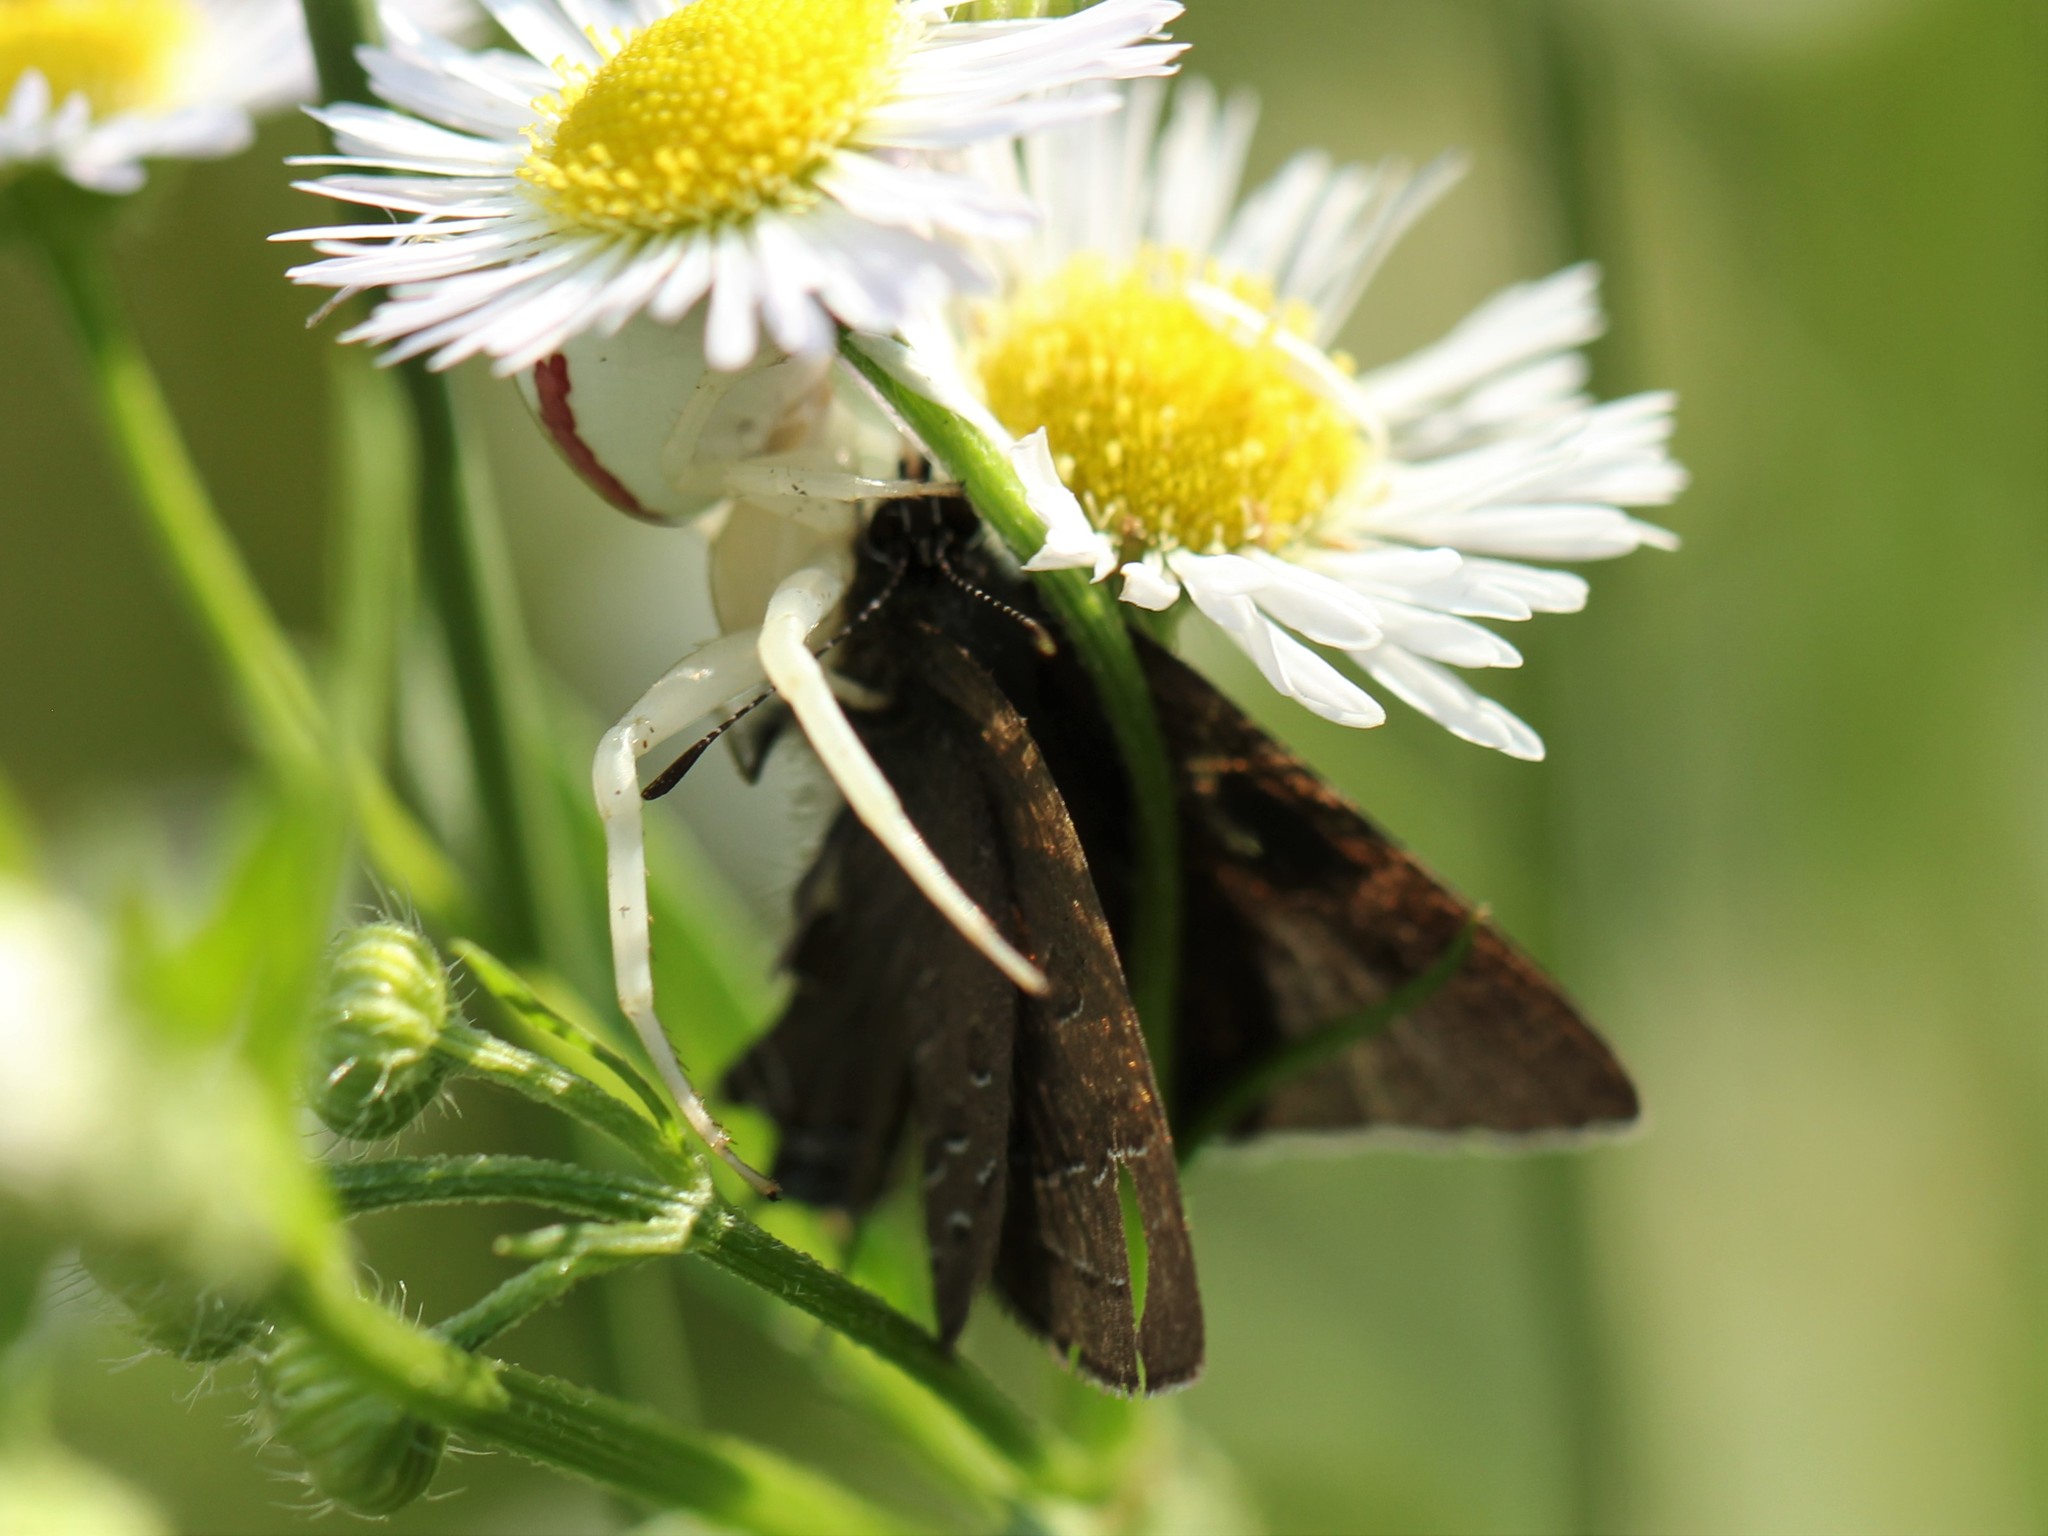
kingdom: Animalia
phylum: Arthropoda
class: Insecta
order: Lepidoptera
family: Lycaenidae
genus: Satyrium
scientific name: Satyrium calanus
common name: Banded hairstreak
